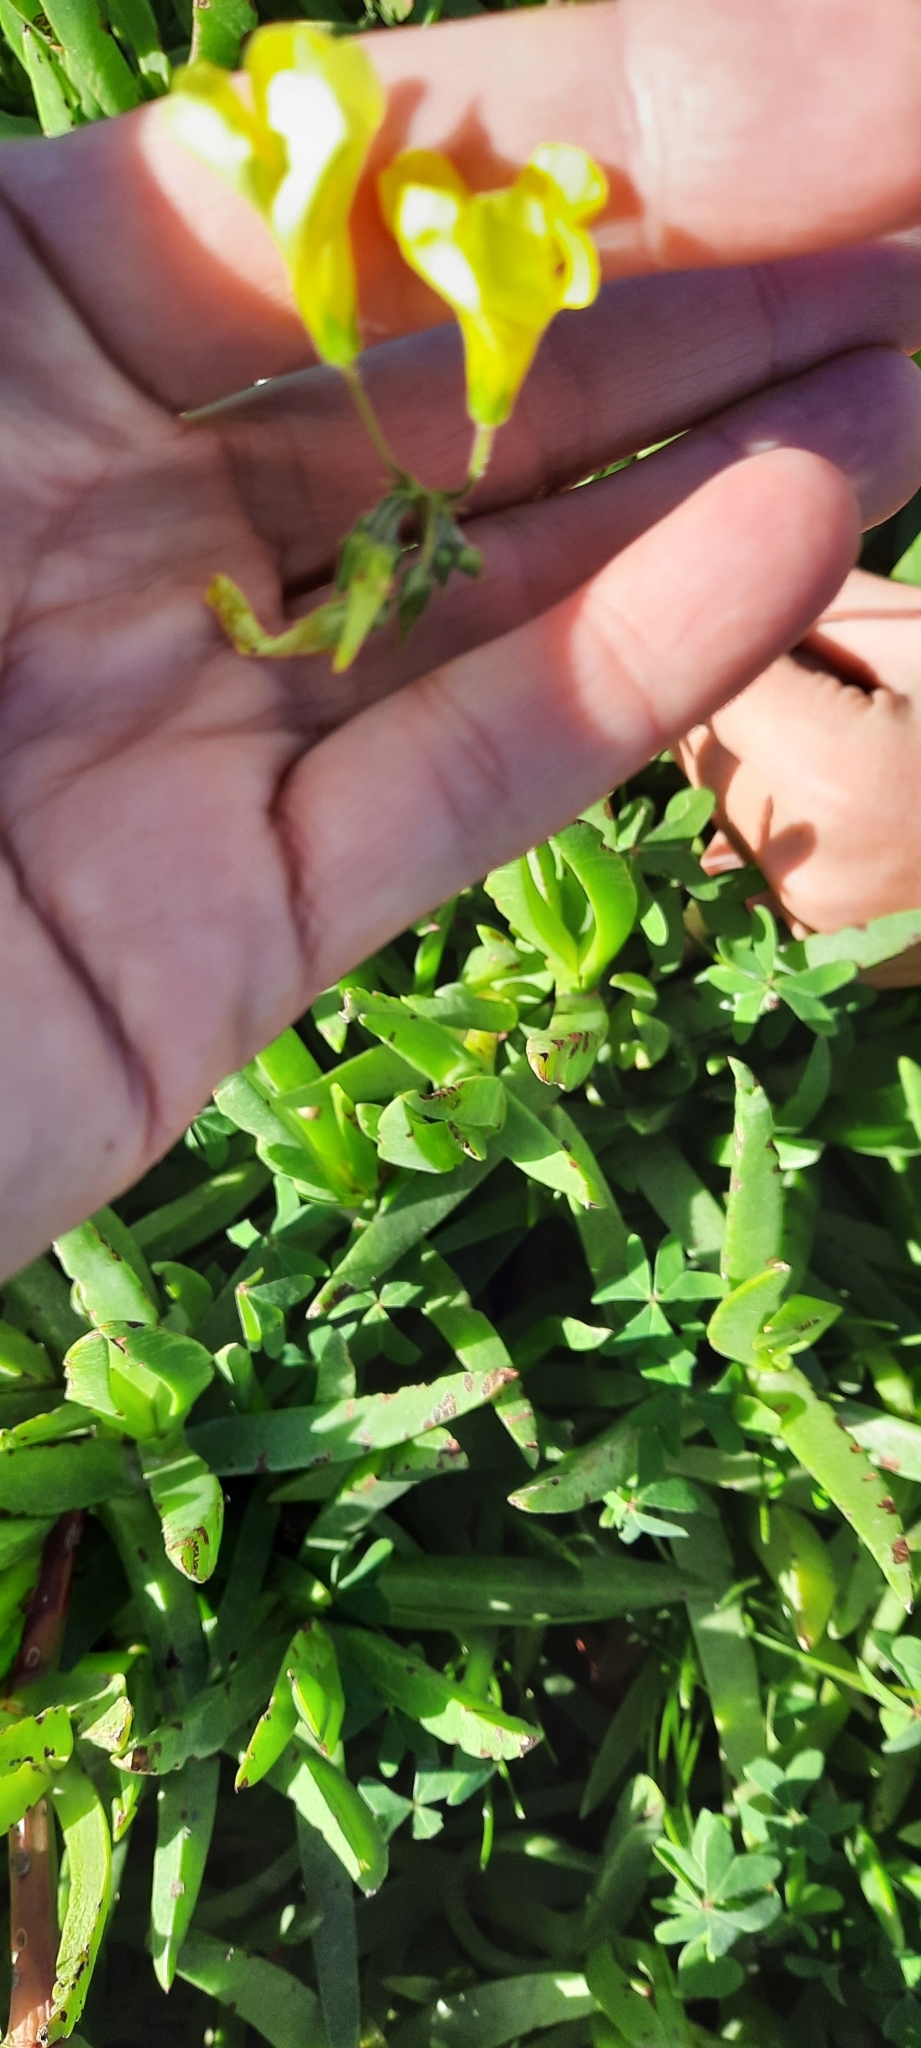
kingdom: Plantae
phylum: Tracheophyta
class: Magnoliopsida
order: Oxalidales
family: Oxalidaceae
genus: Oxalis
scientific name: Oxalis pes-caprae
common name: Bermuda-buttercup
